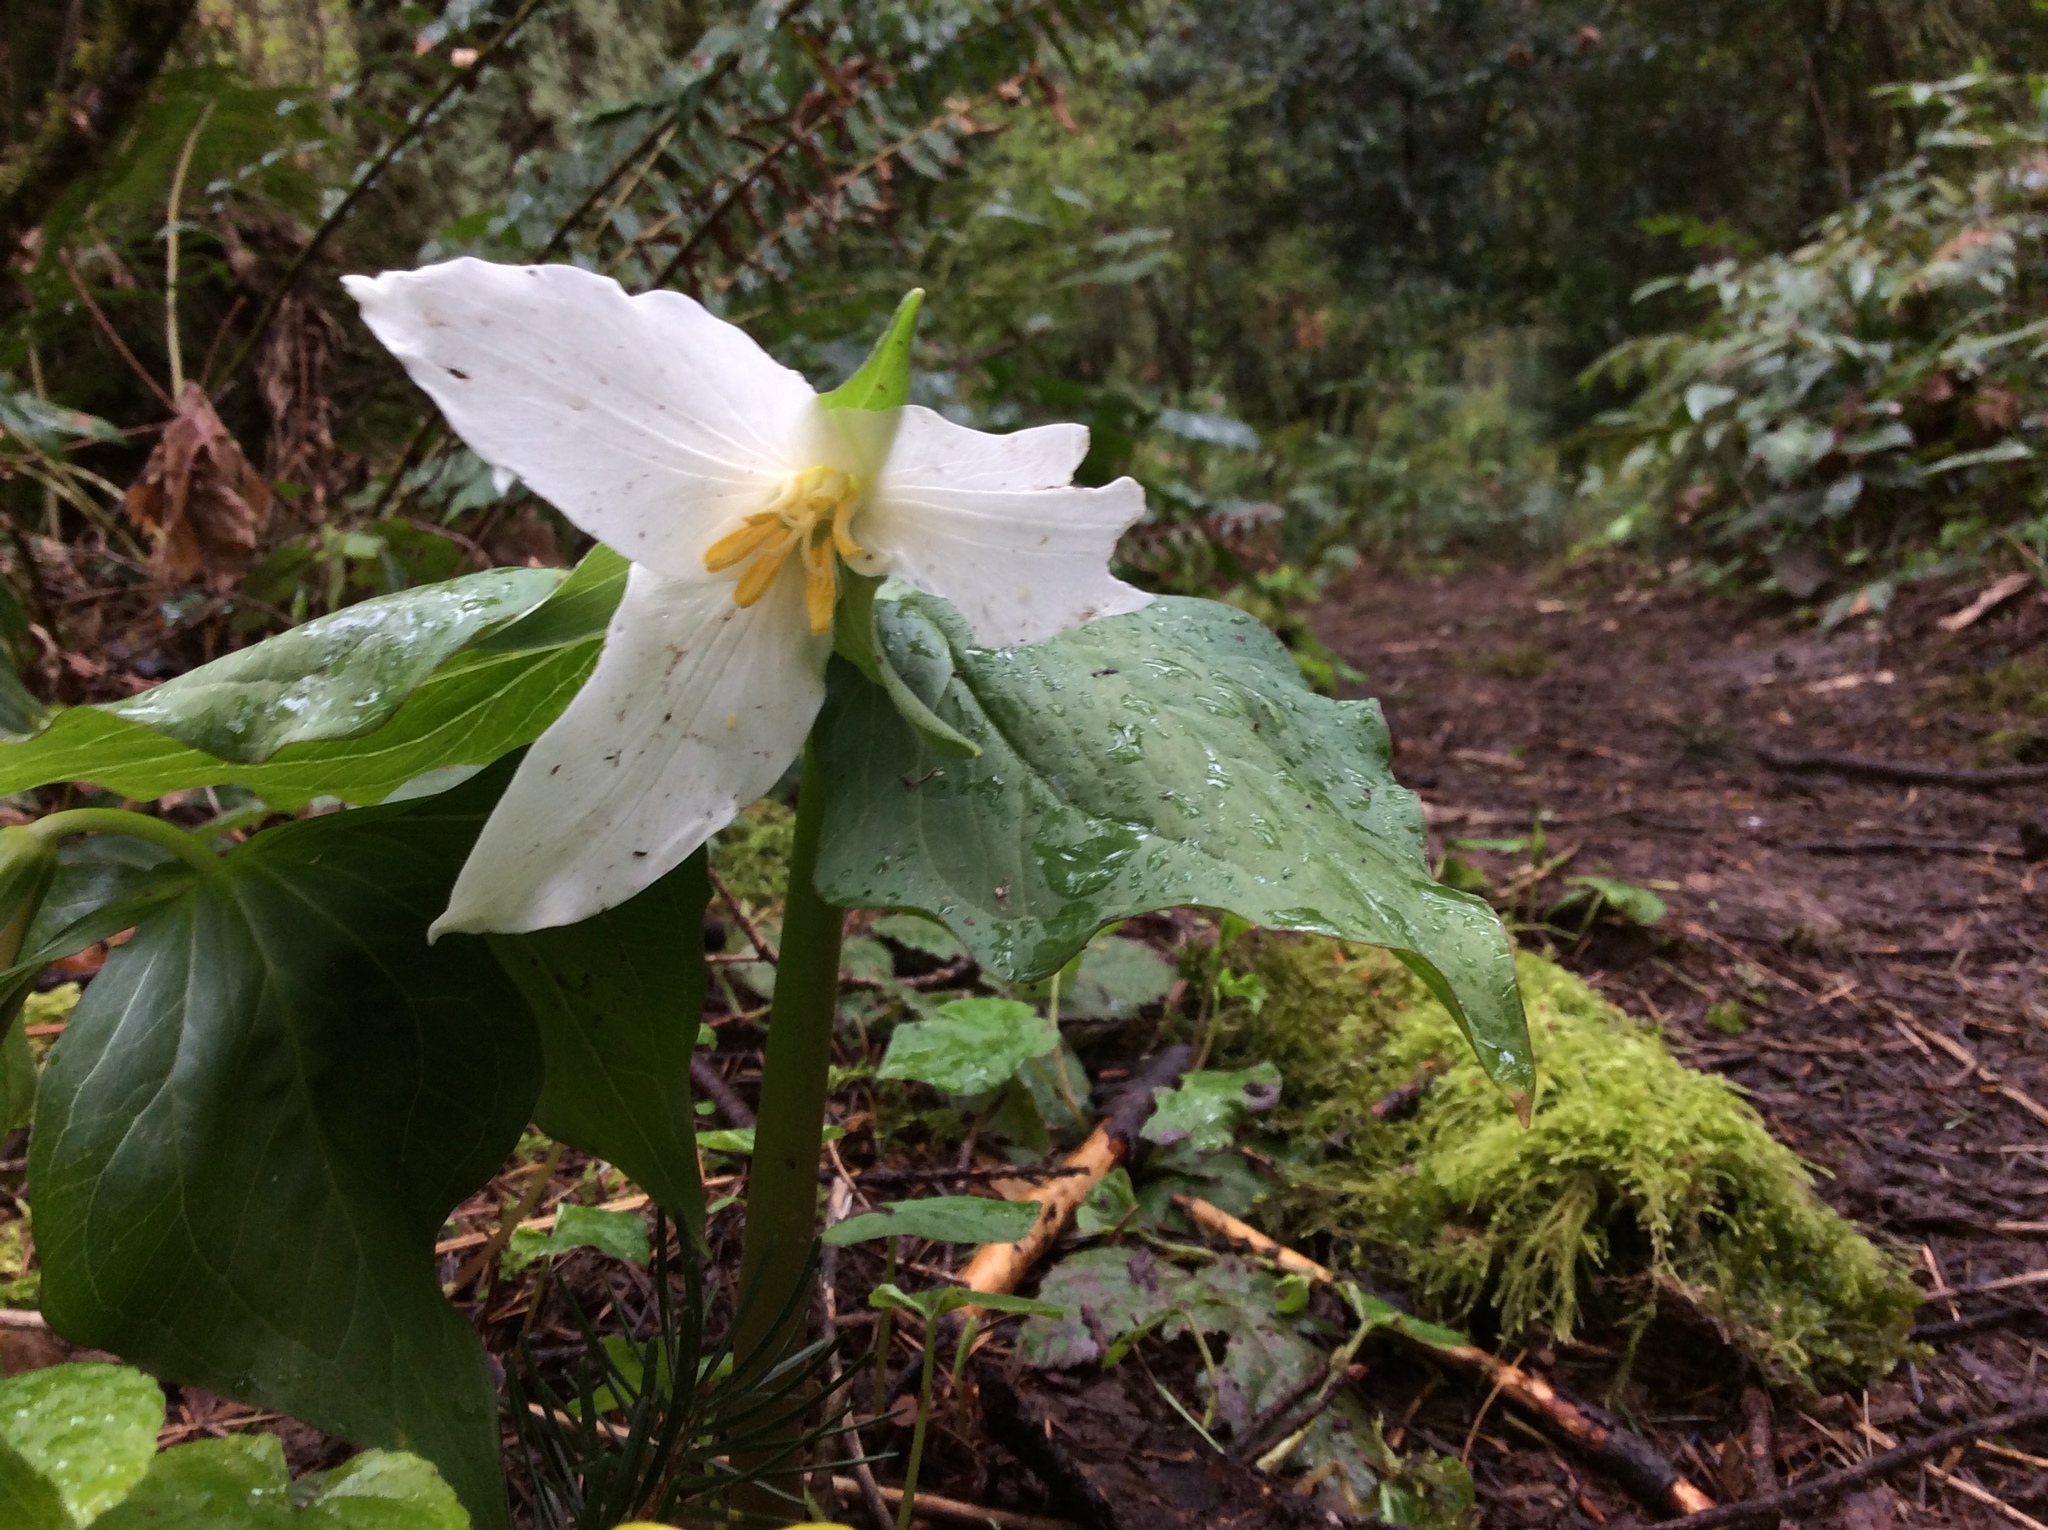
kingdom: Plantae
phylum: Tracheophyta
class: Liliopsida
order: Liliales
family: Melanthiaceae
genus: Trillium
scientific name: Trillium ovatum
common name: Pacific trillium
